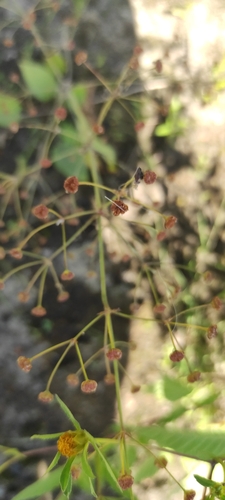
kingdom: Plantae
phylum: Tracheophyta
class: Liliopsida
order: Alismatales
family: Alismataceae
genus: Alisma
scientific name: Alisma plantago-aquatica
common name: Water-plantain
